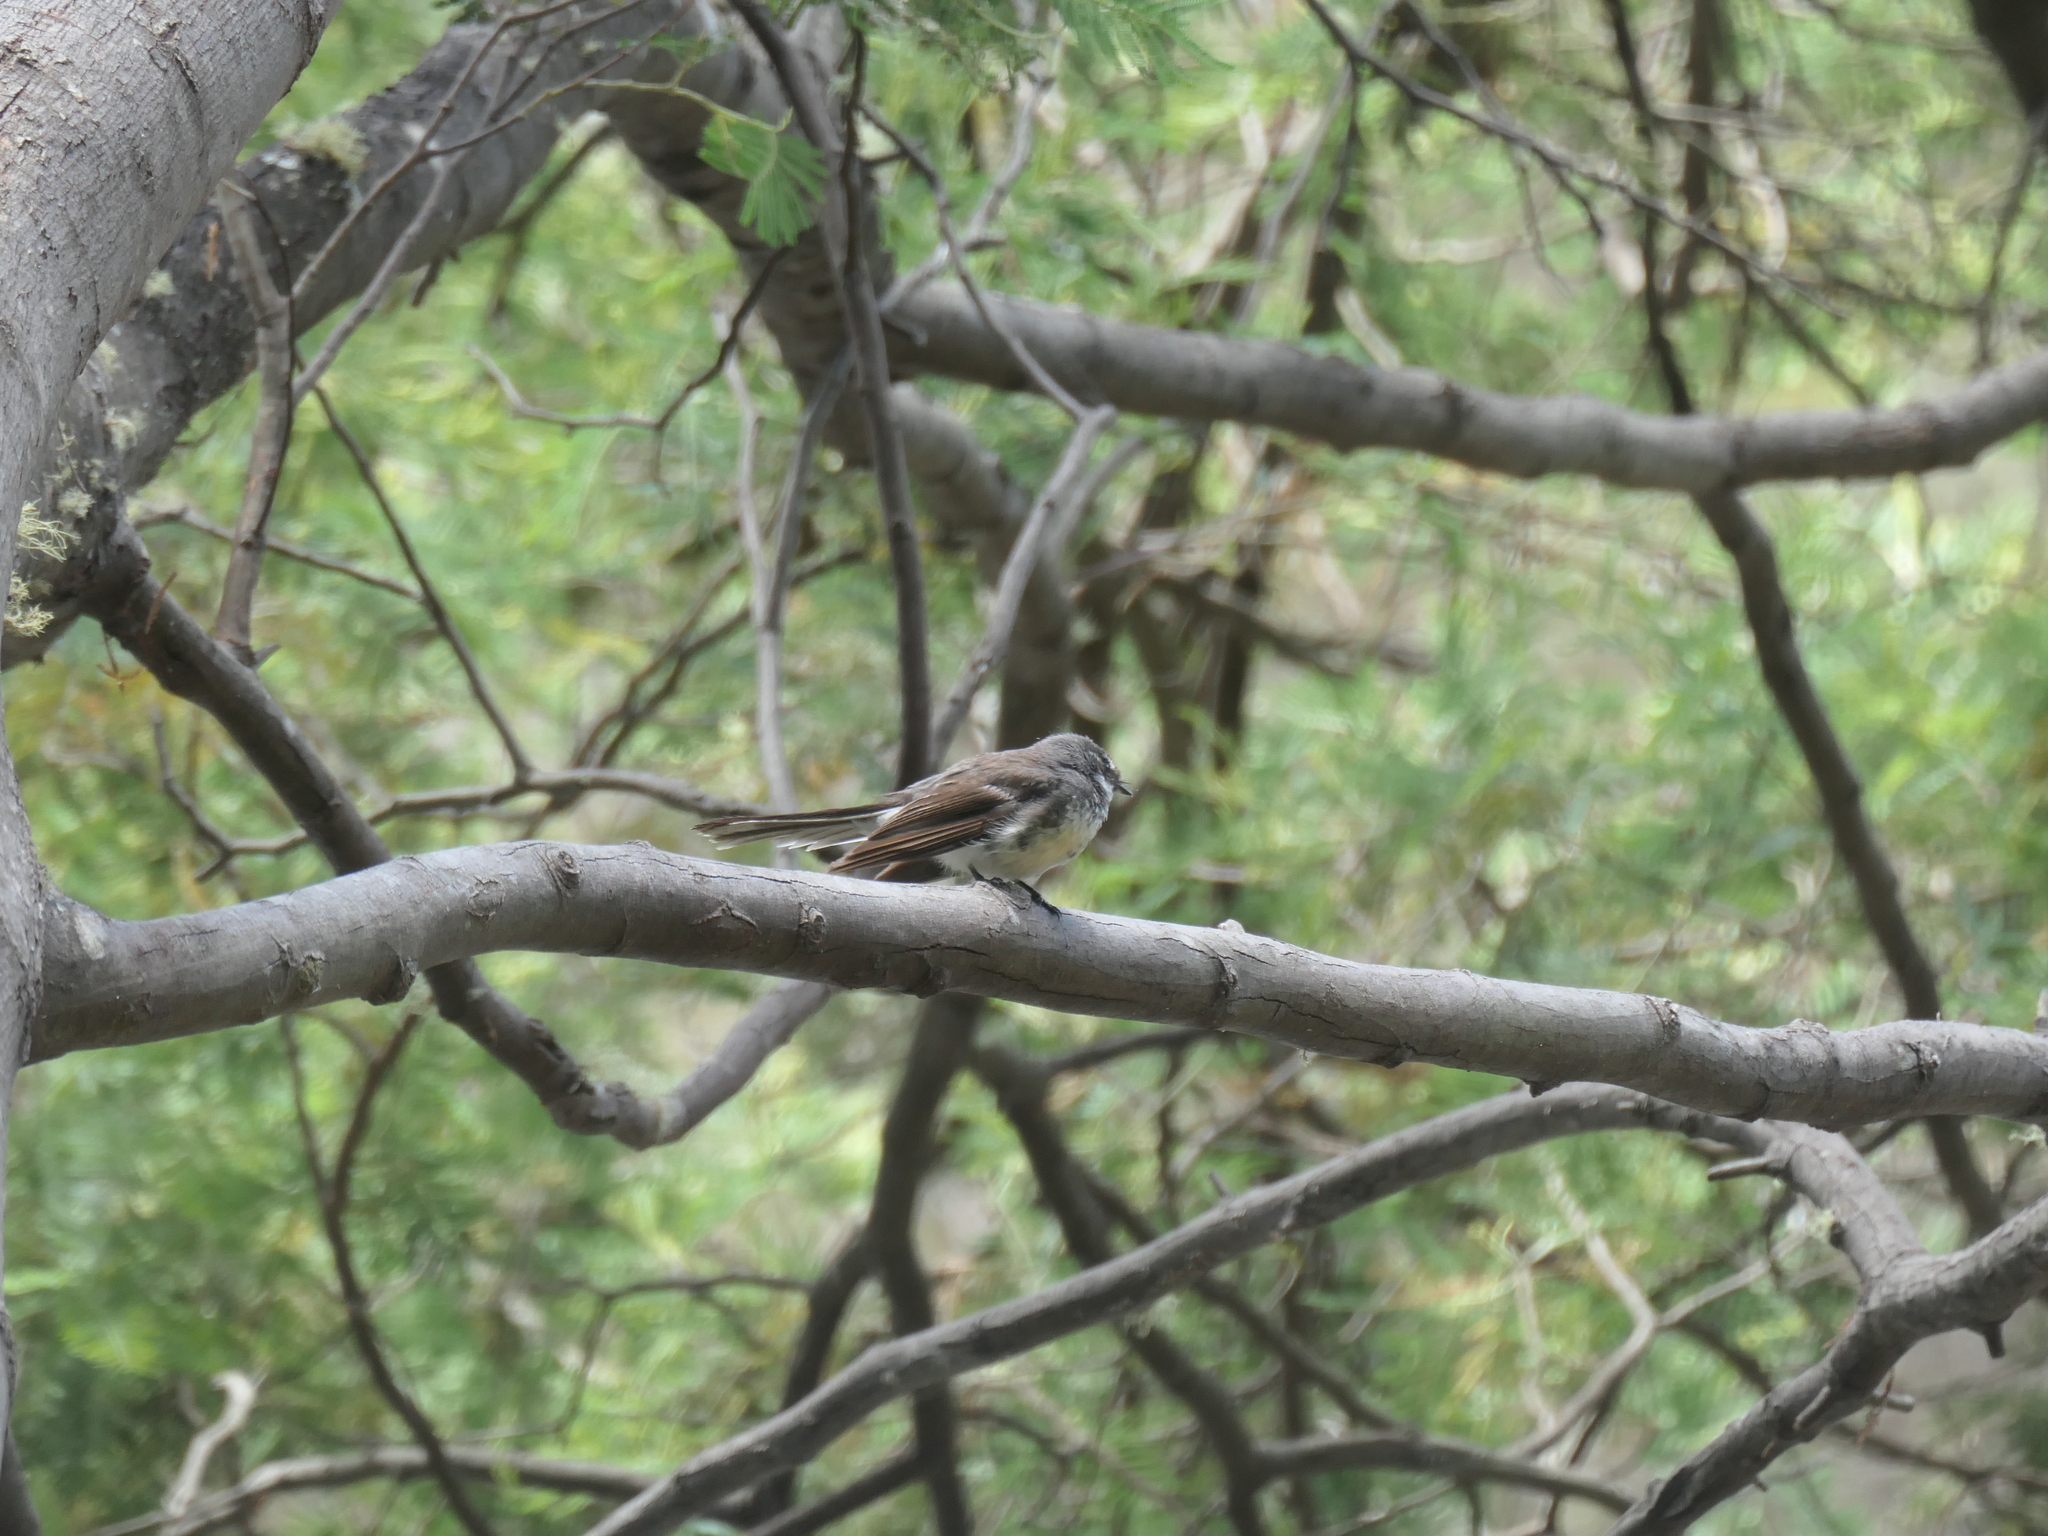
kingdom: Animalia
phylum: Chordata
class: Aves
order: Passeriformes
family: Rhipiduridae
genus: Rhipidura
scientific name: Rhipidura albiscapa
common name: Grey fantail
